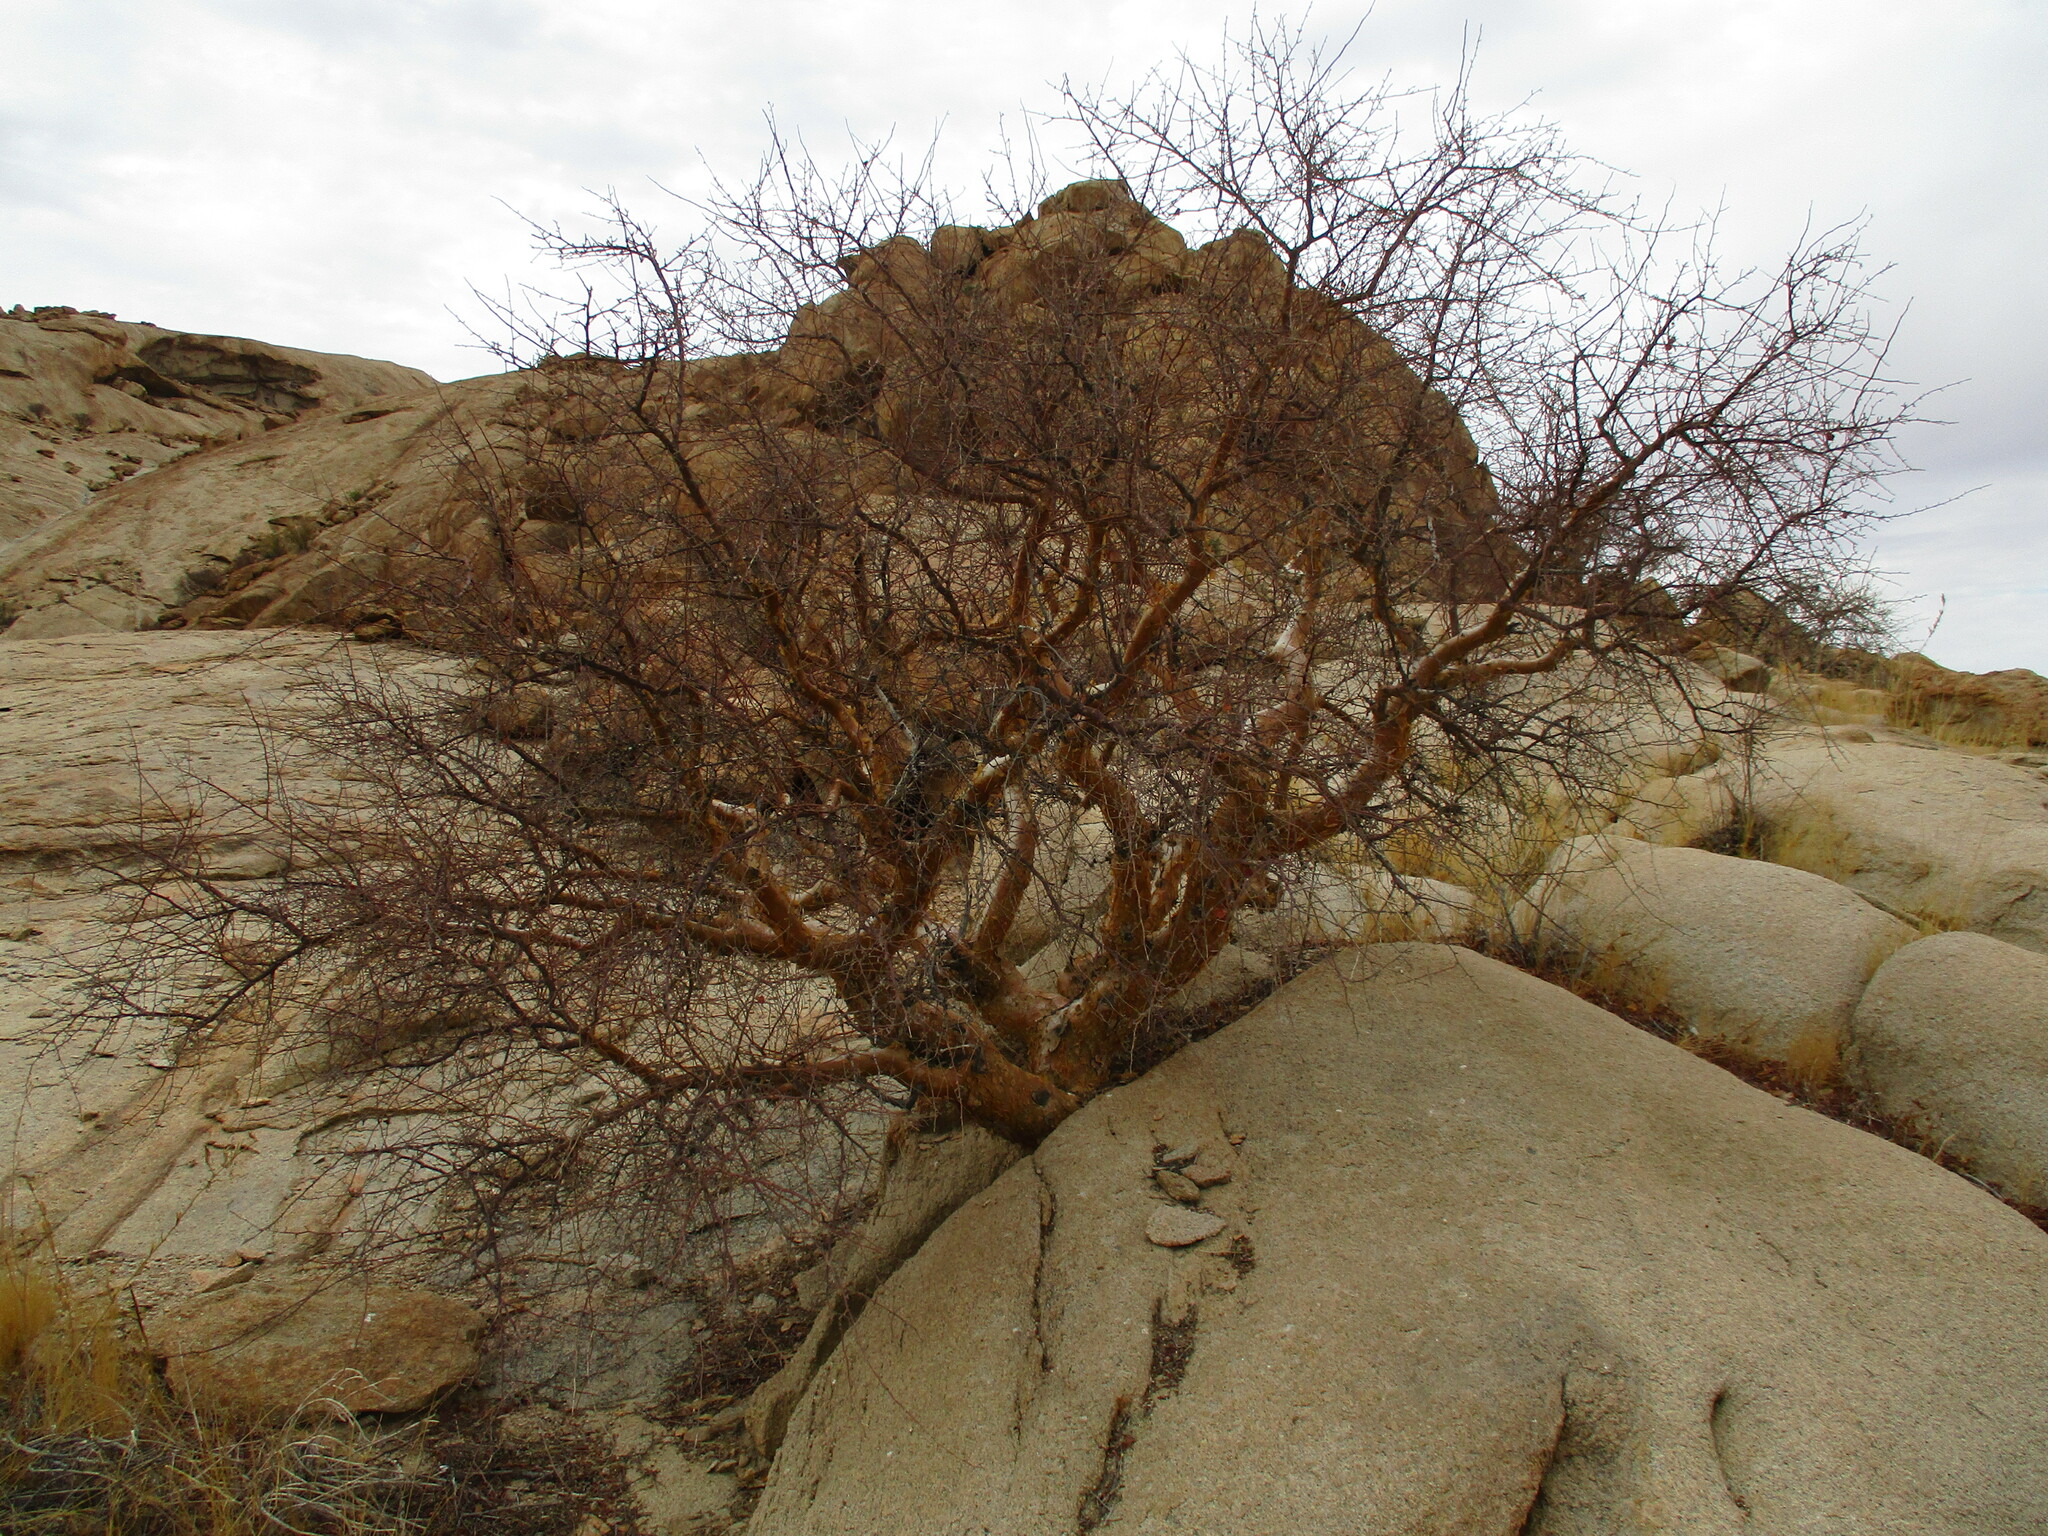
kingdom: Plantae
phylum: Tracheophyta
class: Magnoliopsida
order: Sapindales
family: Burseraceae
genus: Commiphora
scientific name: Commiphora glaucescens
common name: Blue-leaved corkwood
